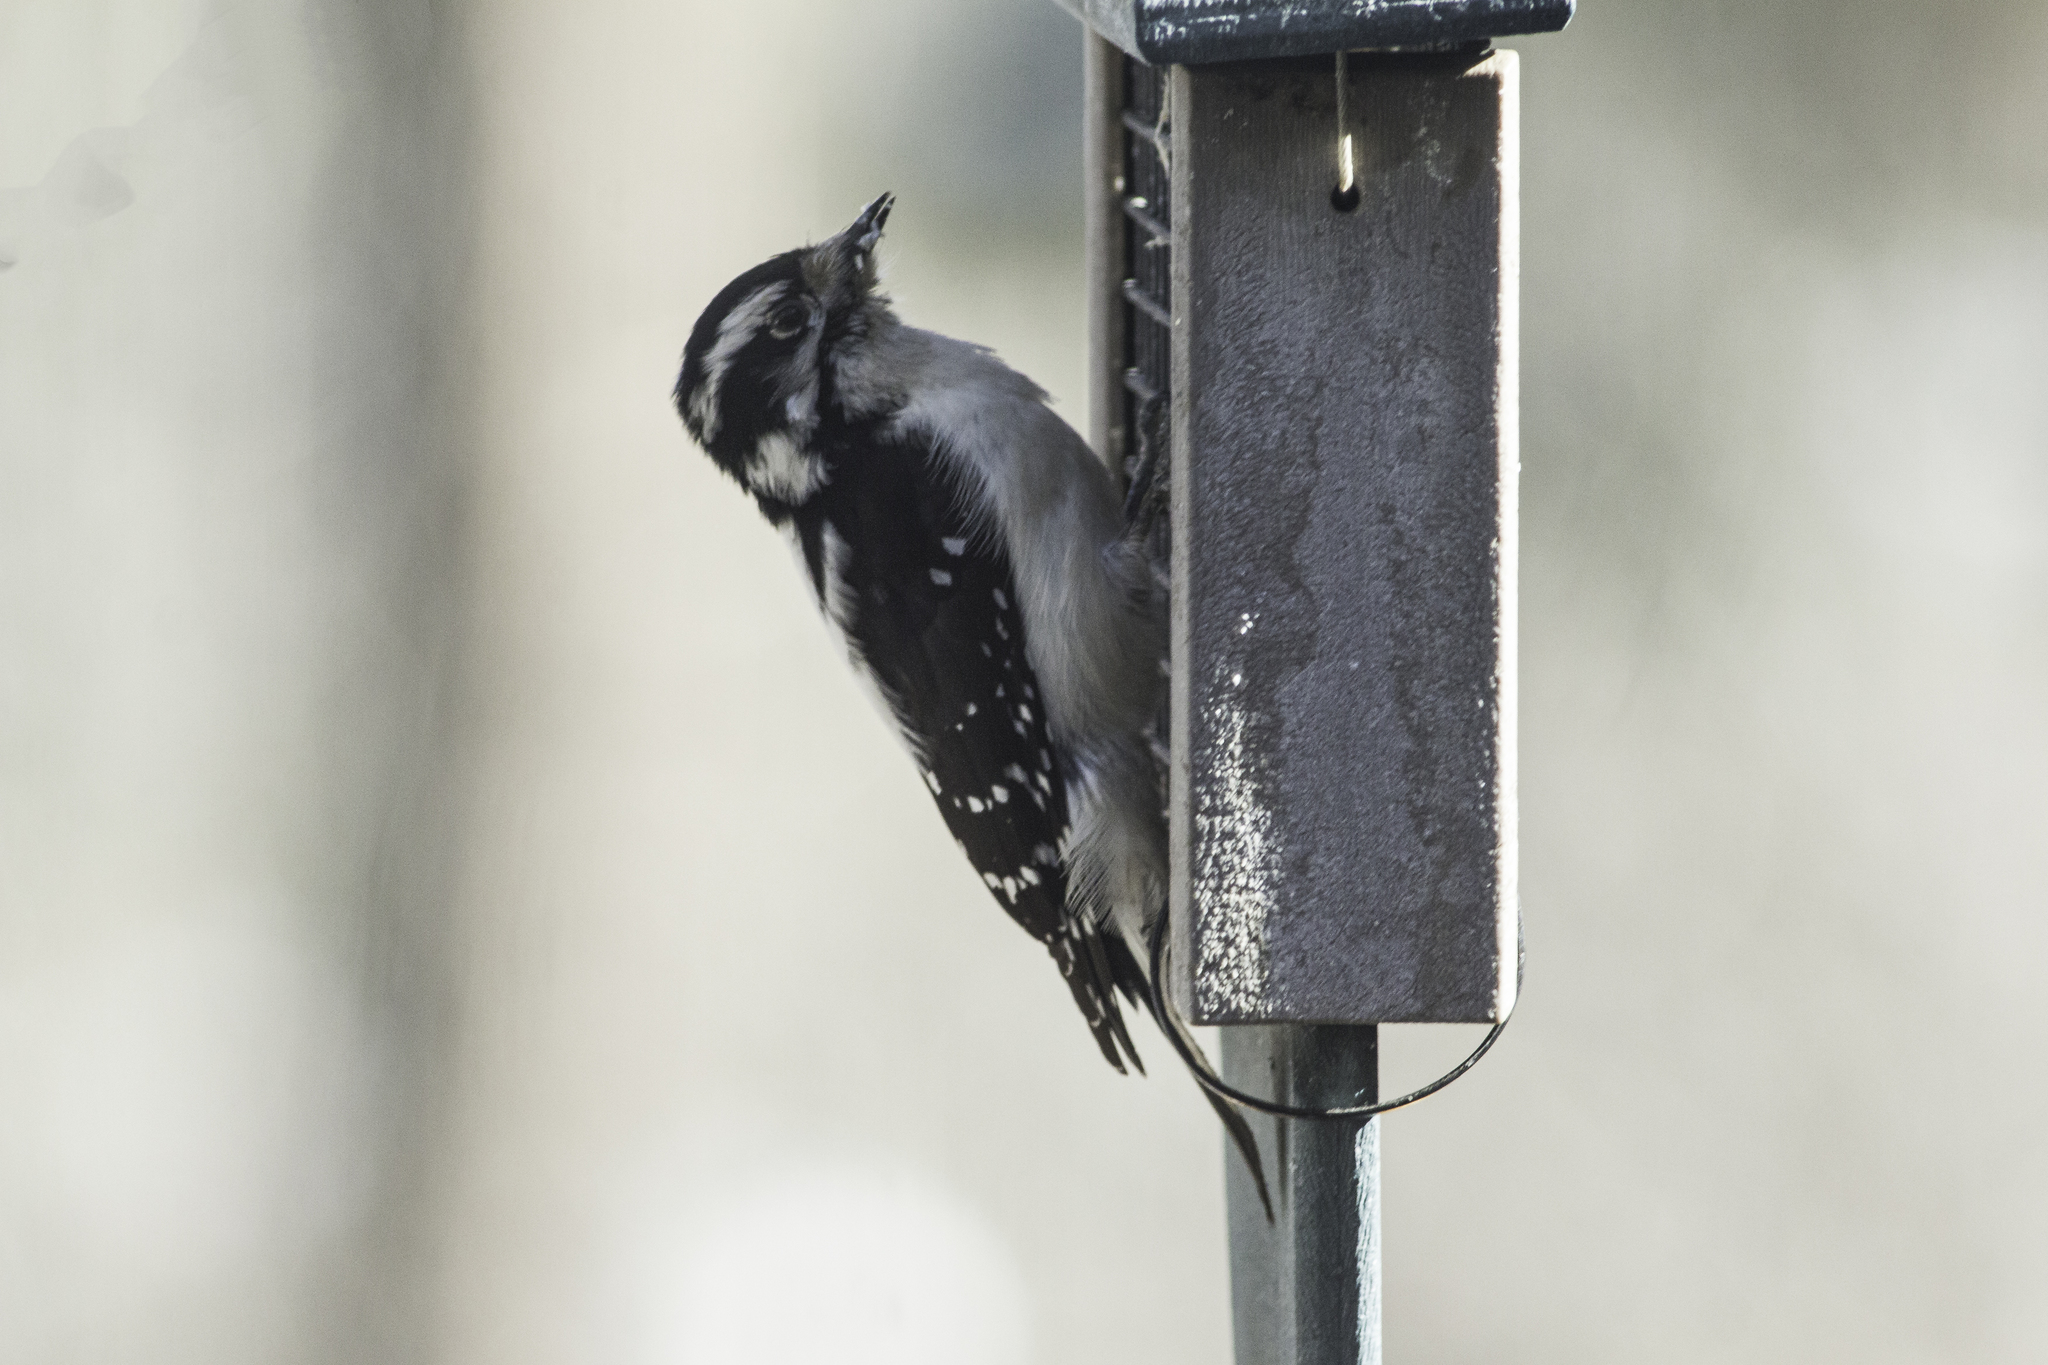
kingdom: Animalia
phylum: Chordata
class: Aves
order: Piciformes
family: Picidae
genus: Dryobates
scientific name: Dryobates pubescens
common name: Downy woodpecker
